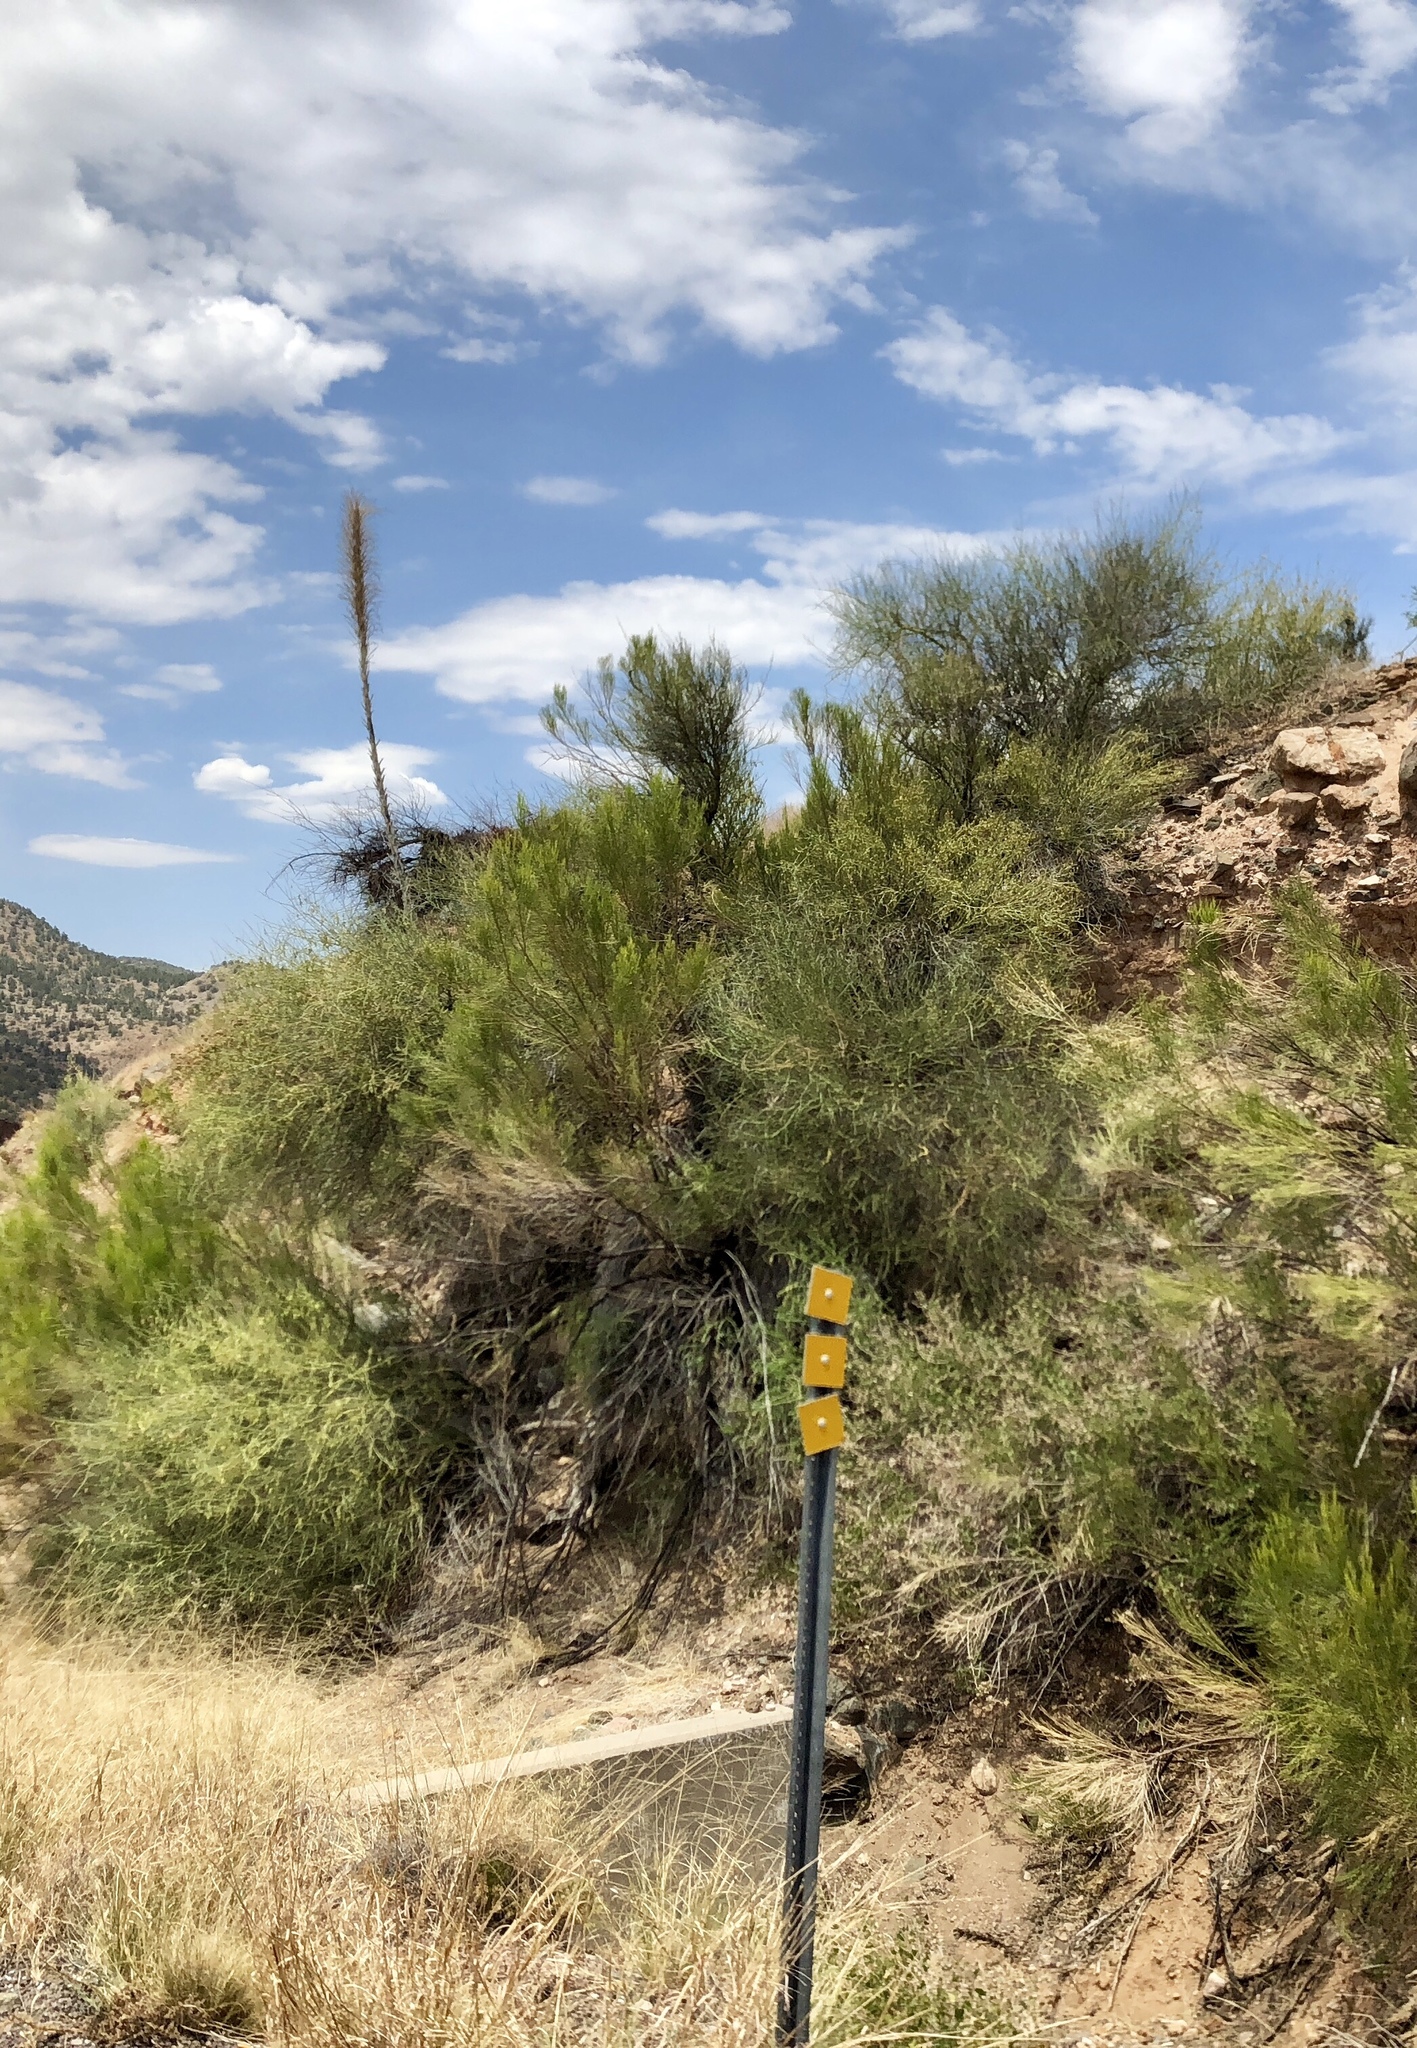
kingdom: Plantae
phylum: Tracheophyta
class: Magnoliopsida
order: Celastrales
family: Celastraceae
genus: Canotia
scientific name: Canotia holacantha
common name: Crucifixion thorns
